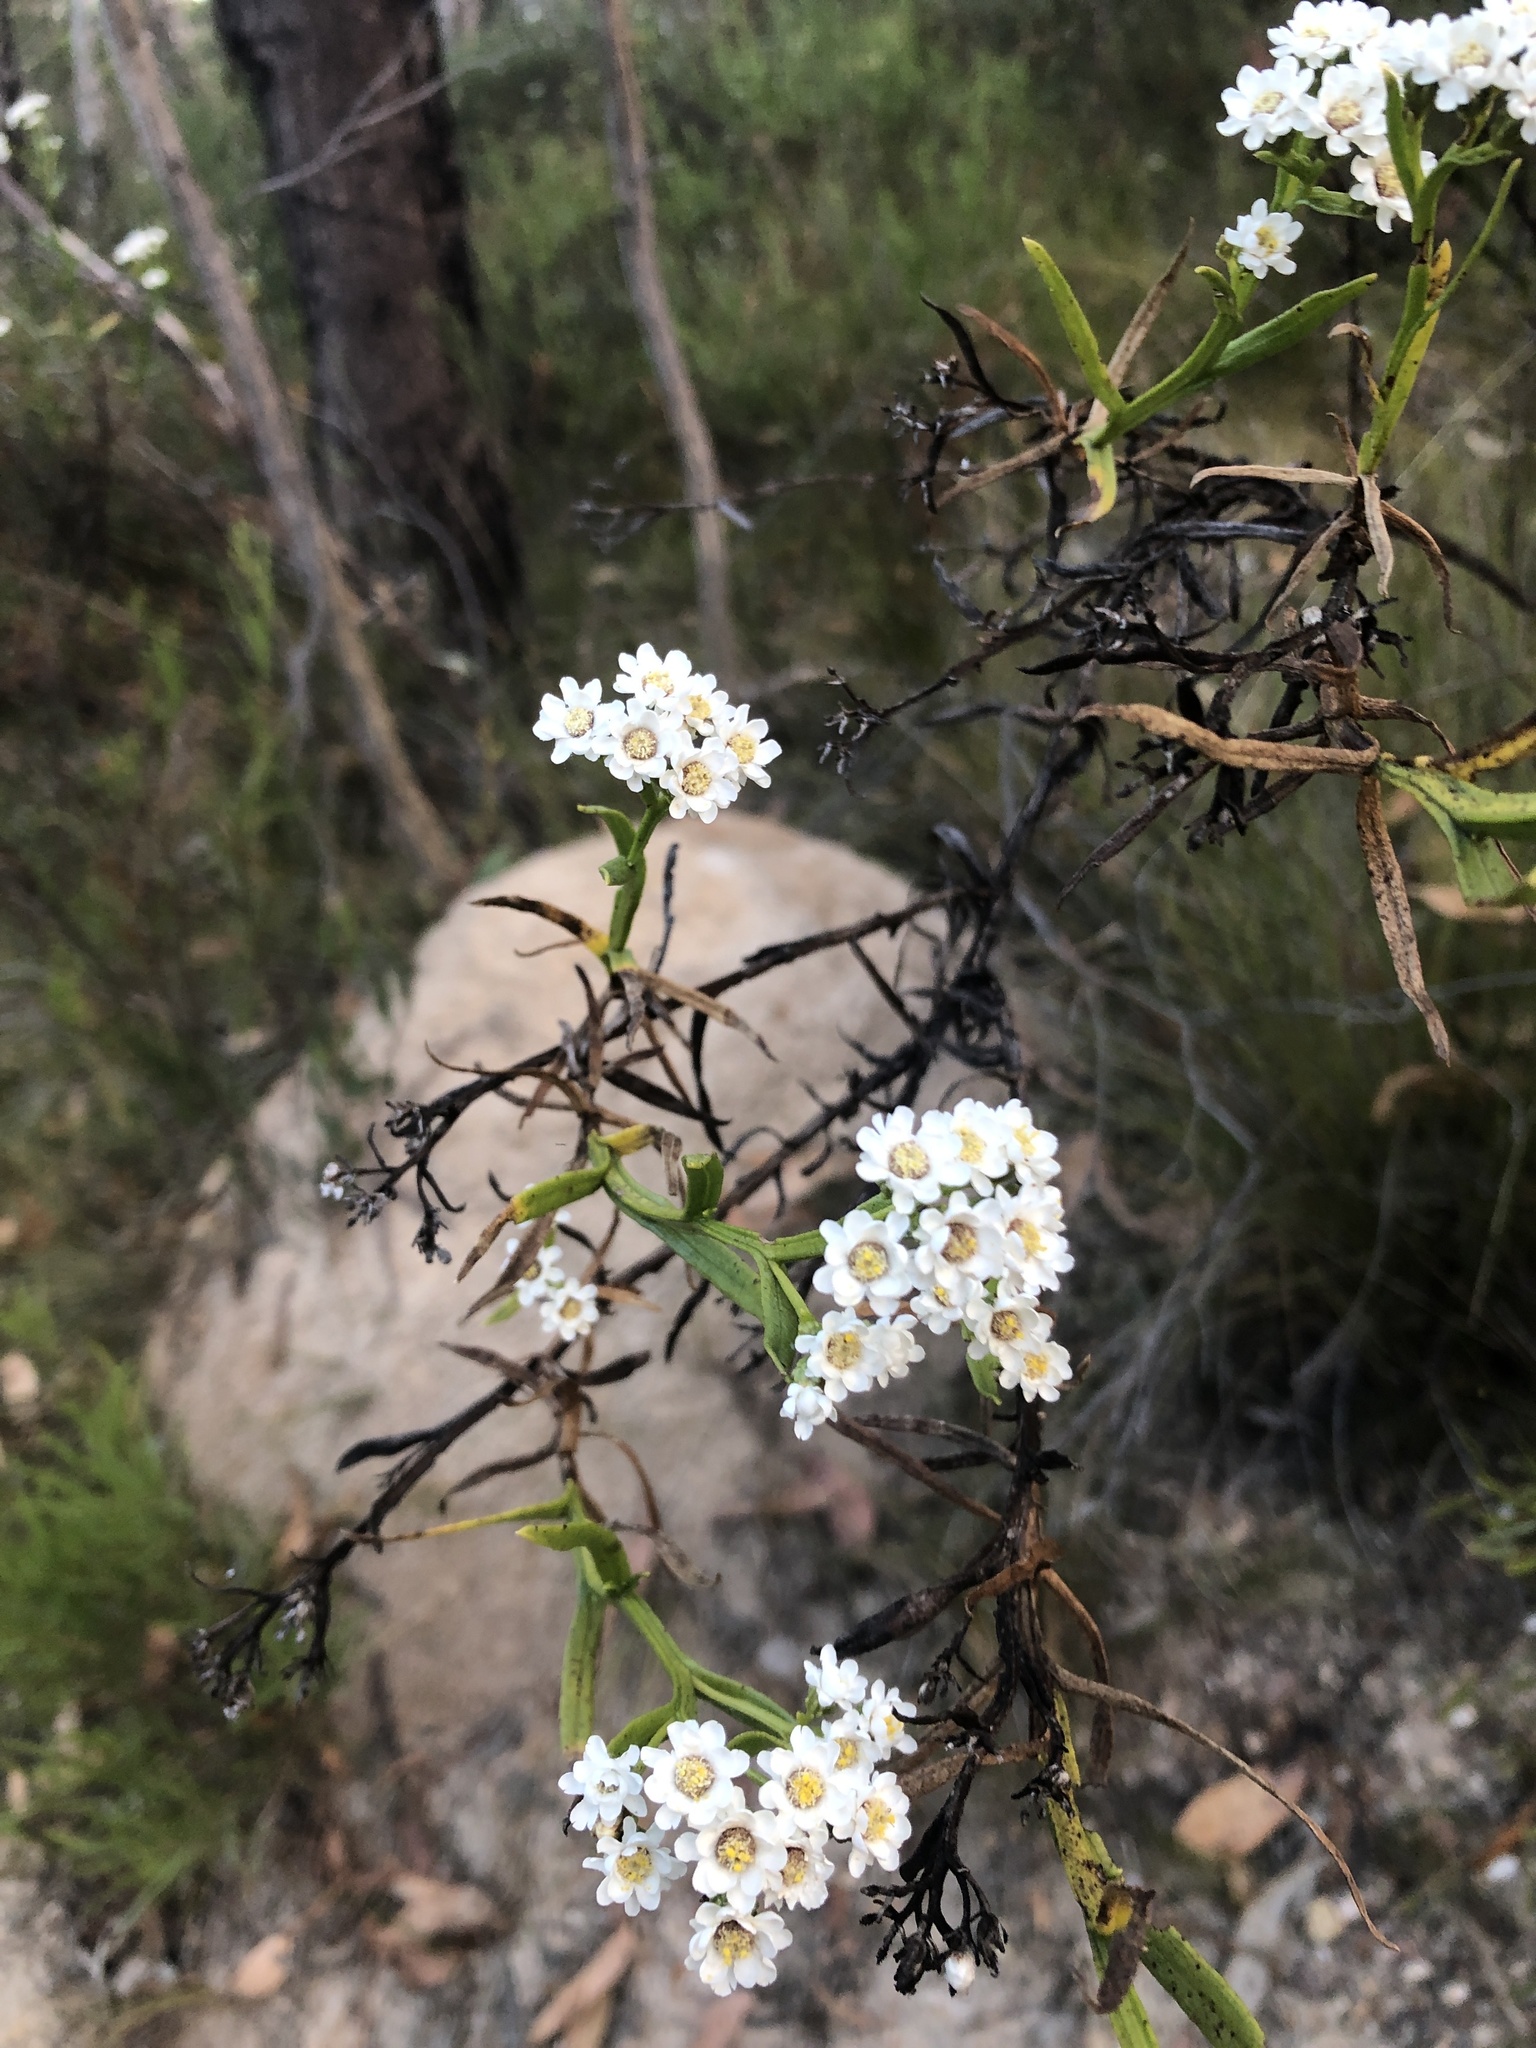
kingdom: Plantae
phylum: Tracheophyta
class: Magnoliopsida
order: Asterales
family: Asteraceae
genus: Ixodia
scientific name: Ixodia achillaeoides
